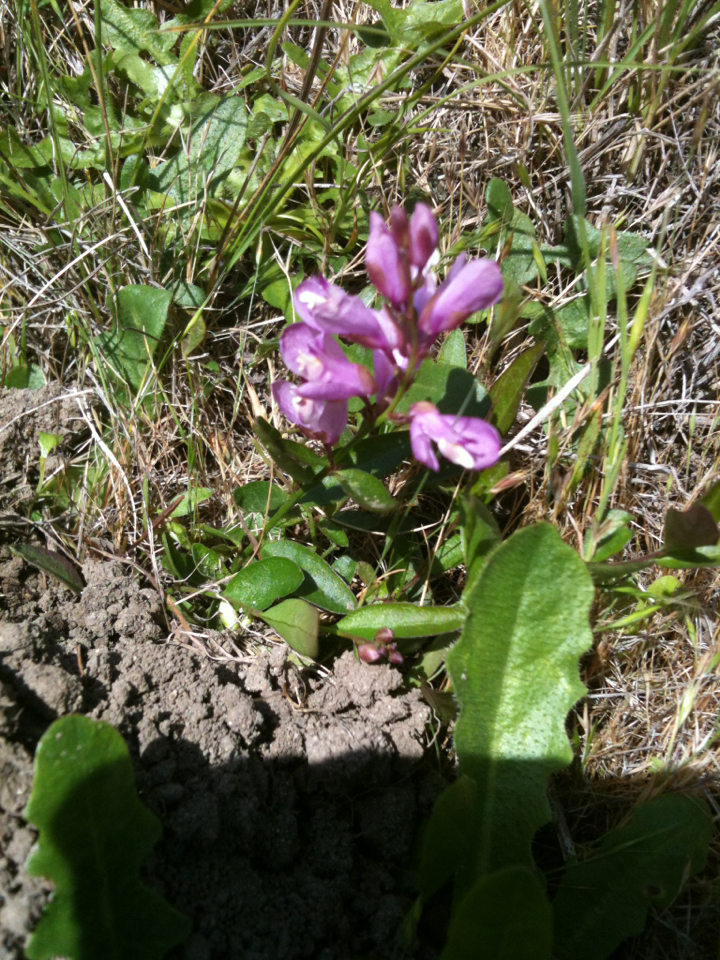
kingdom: Plantae
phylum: Tracheophyta
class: Magnoliopsida
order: Fabales
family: Polygalaceae
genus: Rhinotropis
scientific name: Rhinotropis californica
